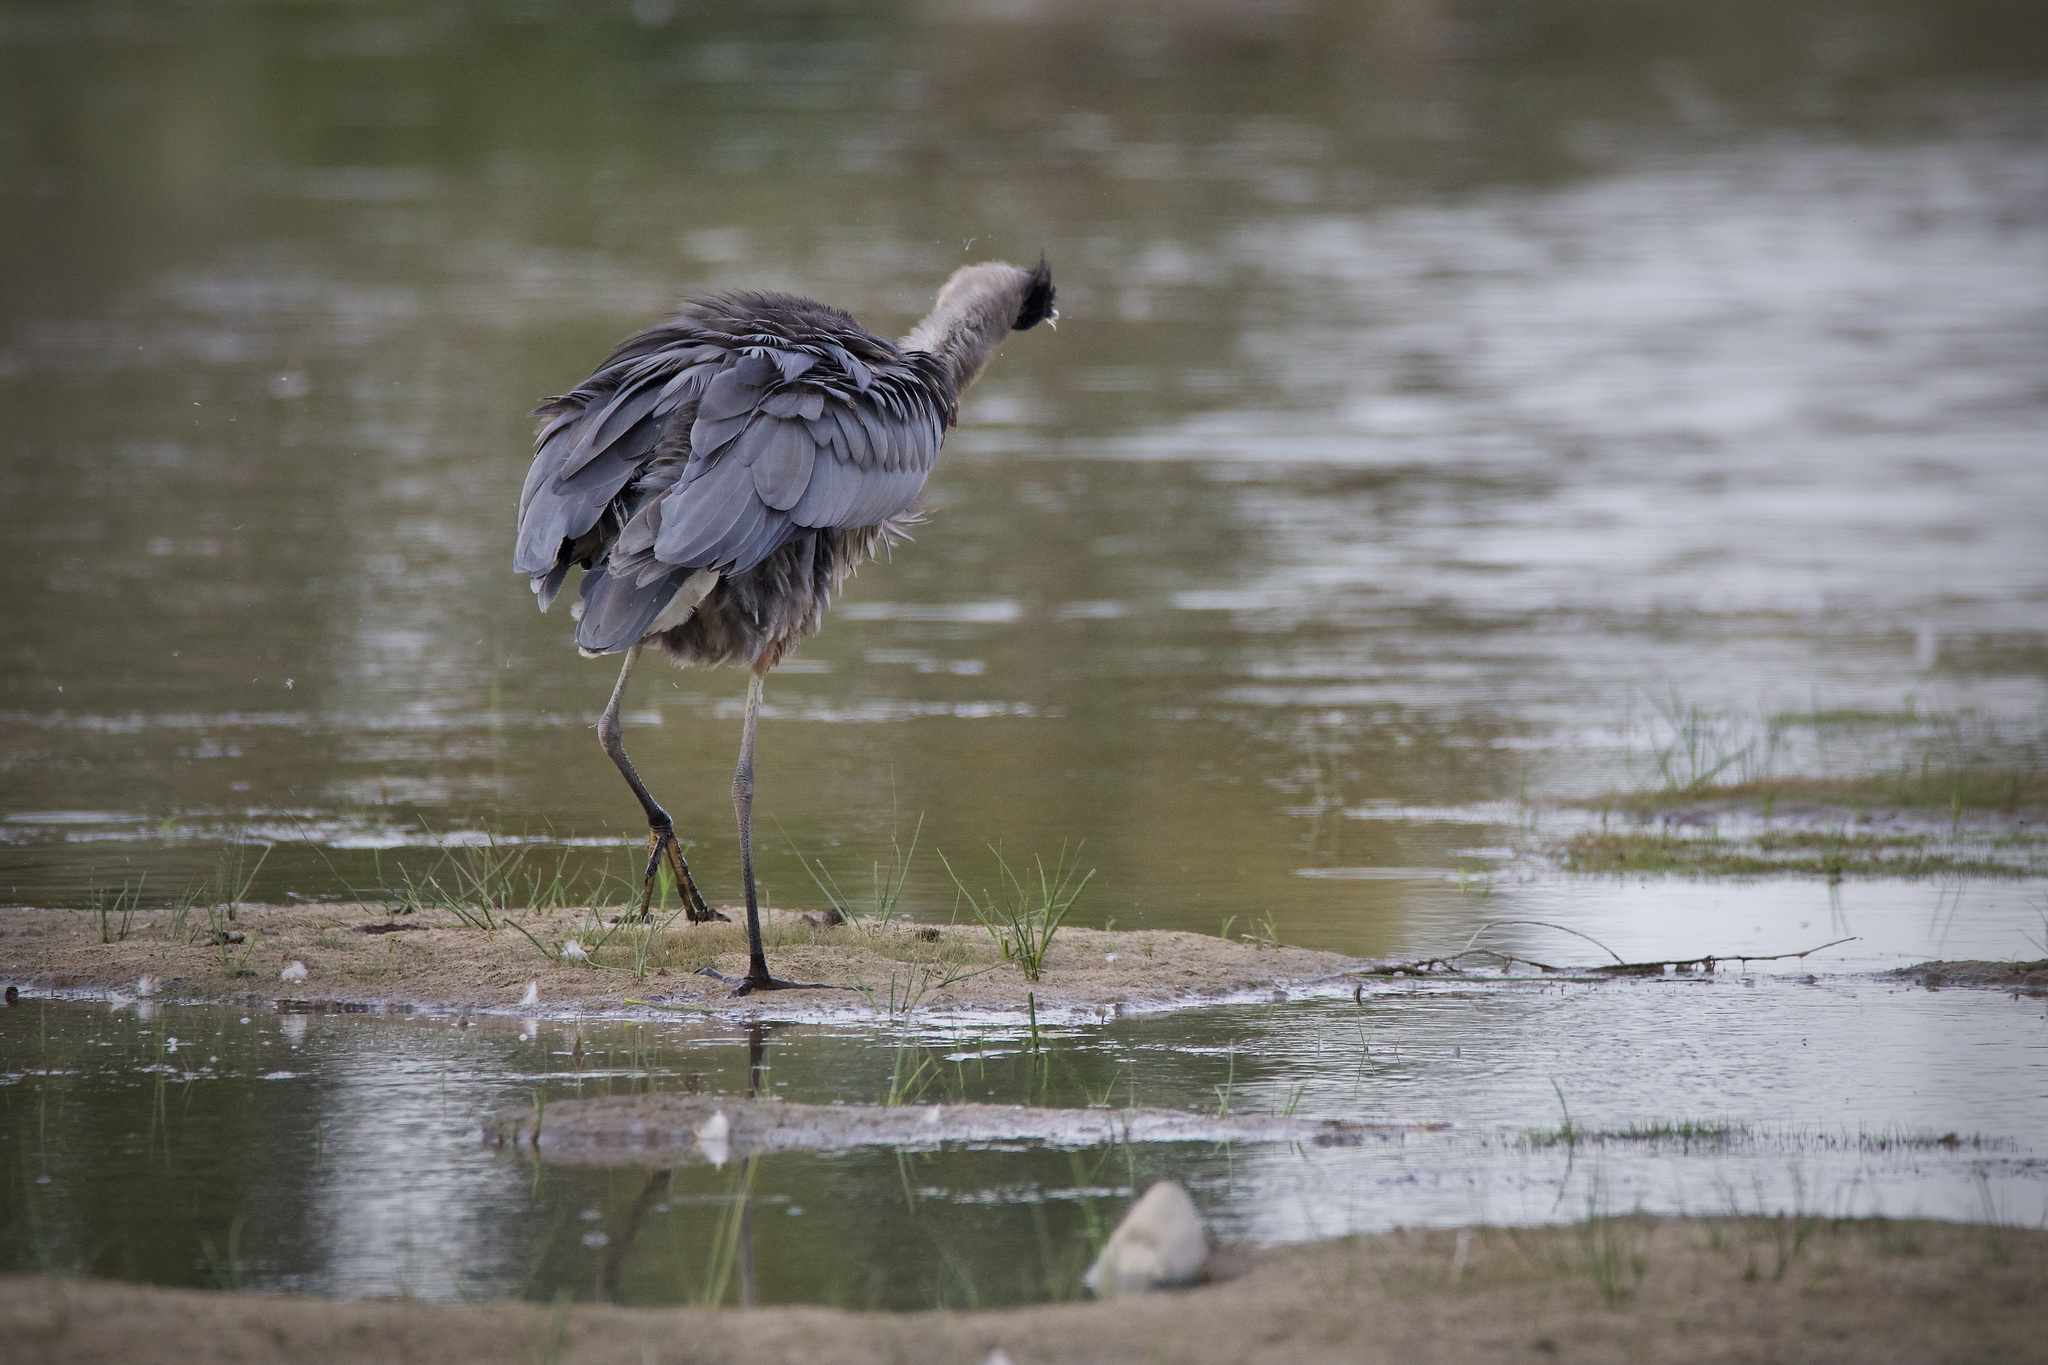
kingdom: Animalia
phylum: Chordata
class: Aves
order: Pelecaniformes
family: Ardeidae
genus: Ardea
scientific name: Ardea herodias
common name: Great blue heron
